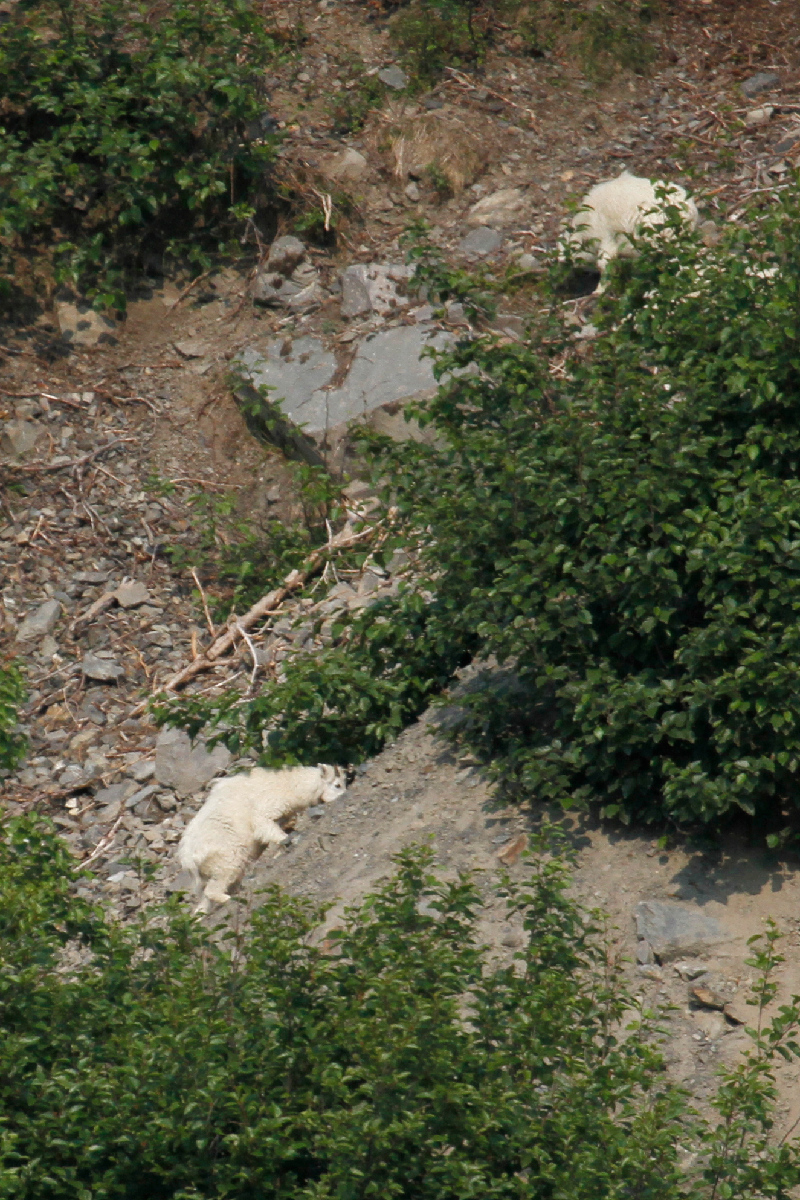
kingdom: Animalia
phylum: Chordata
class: Mammalia
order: Artiodactyla
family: Bovidae
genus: Oreamnos
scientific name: Oreamnos americanus
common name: Mountain goat
